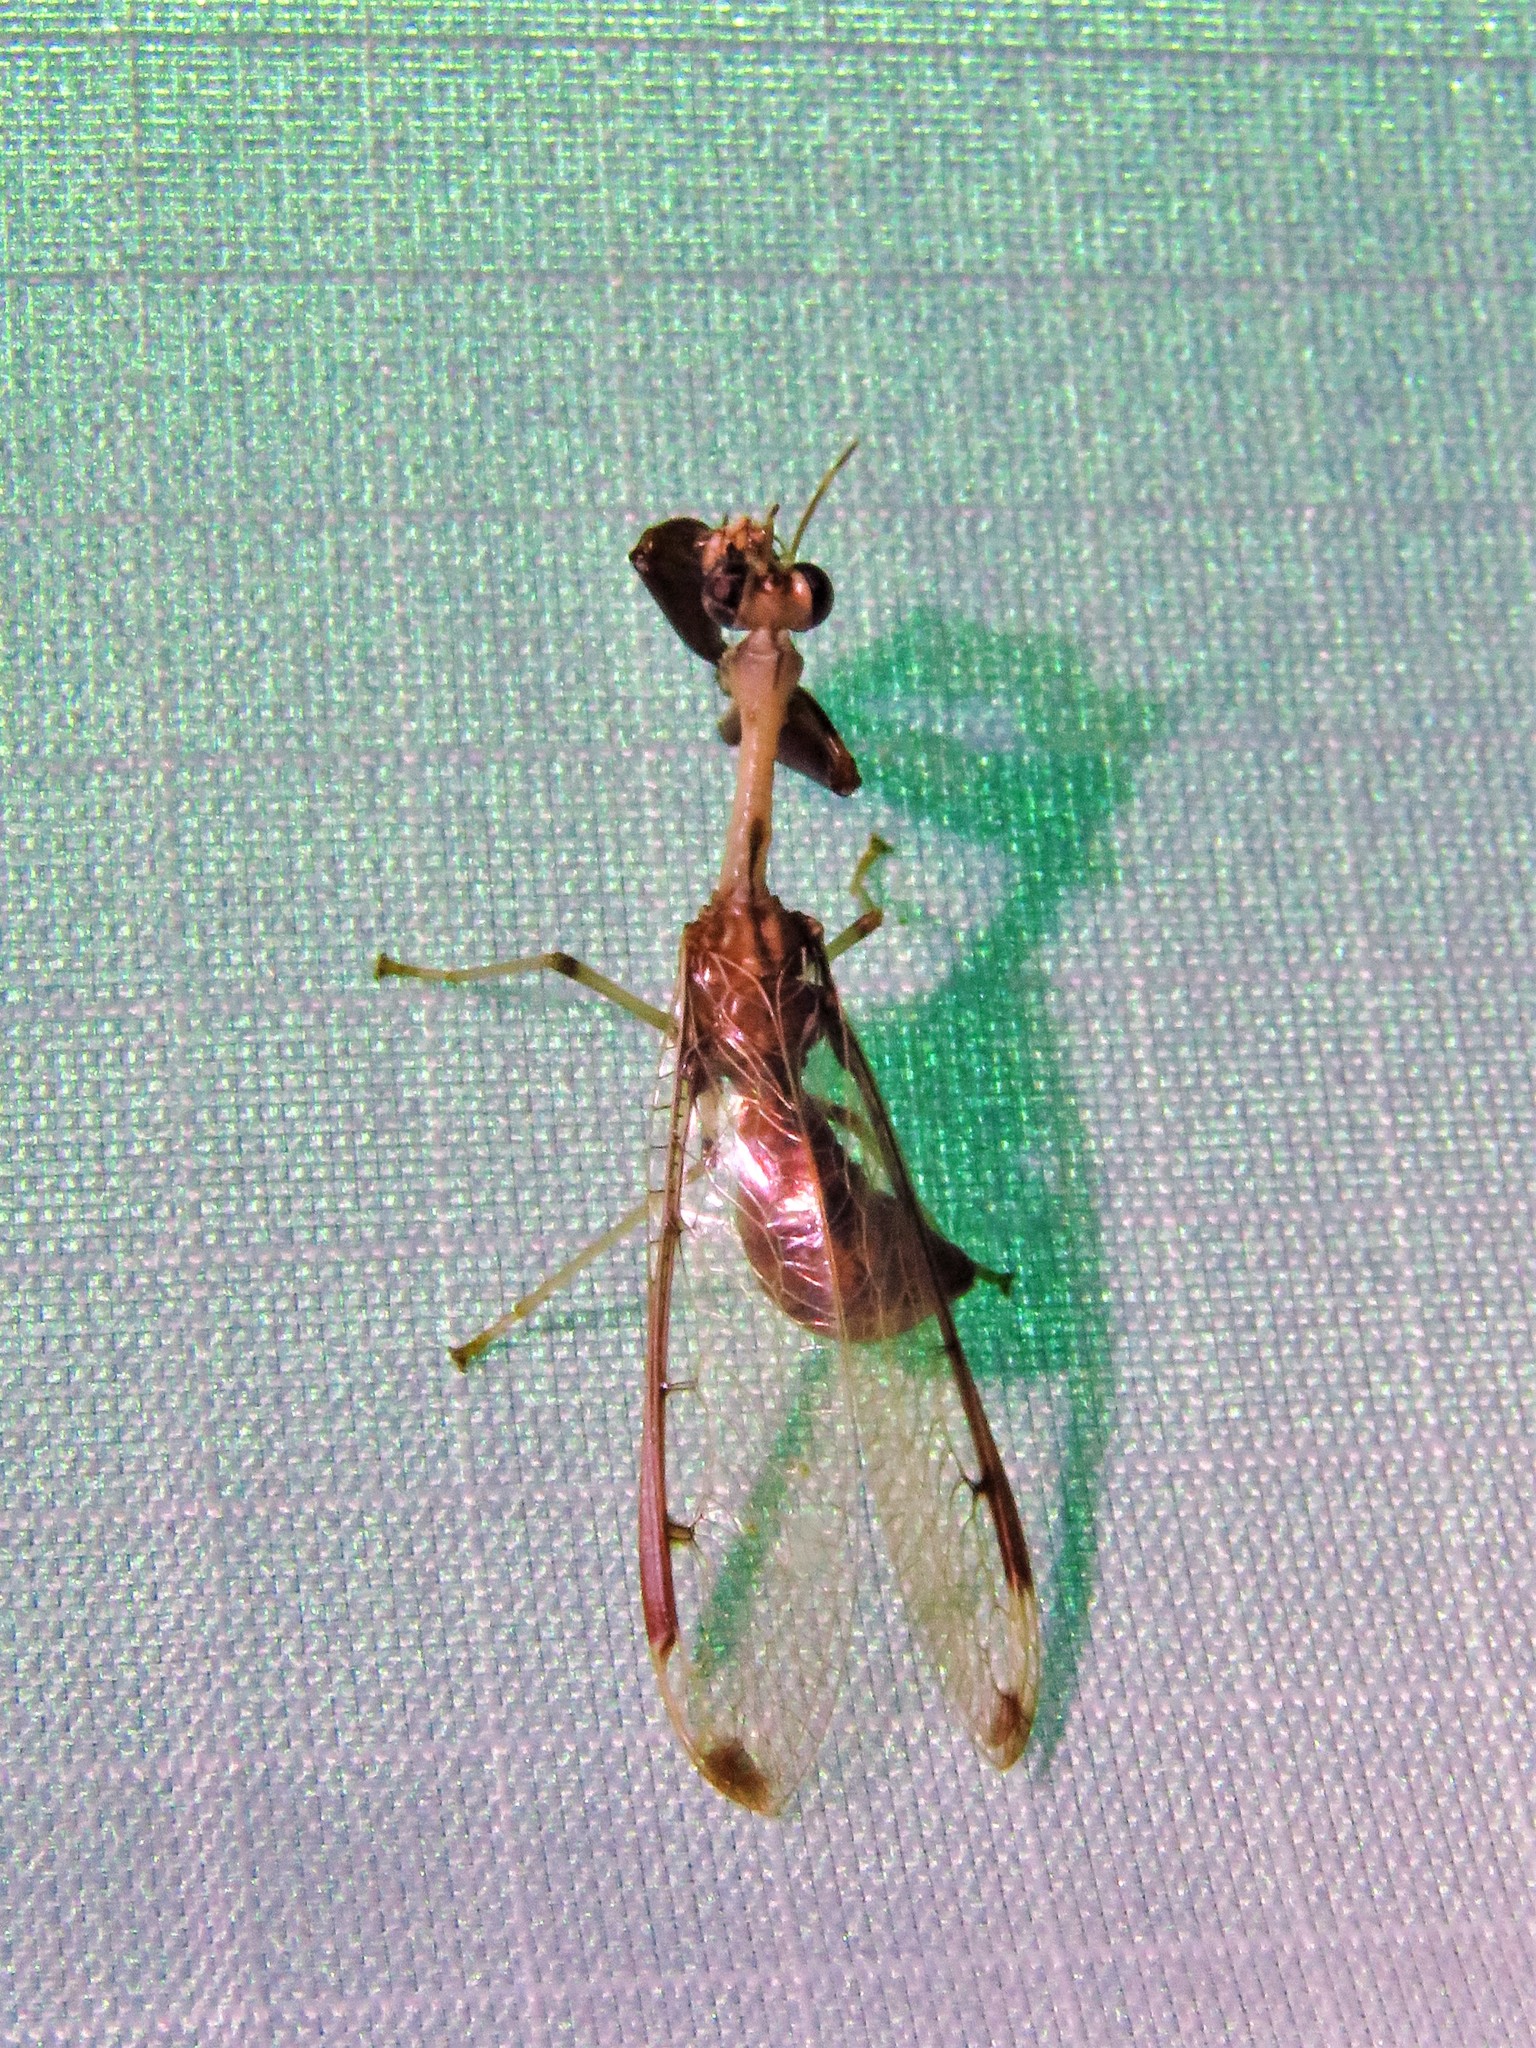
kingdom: Animalia
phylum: Arthropoda
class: Insecta
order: Neuroptera
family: Mantispidae
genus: Dicromantispa
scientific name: Dicromantispa interrupta
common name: Four-spotted mantidfly
